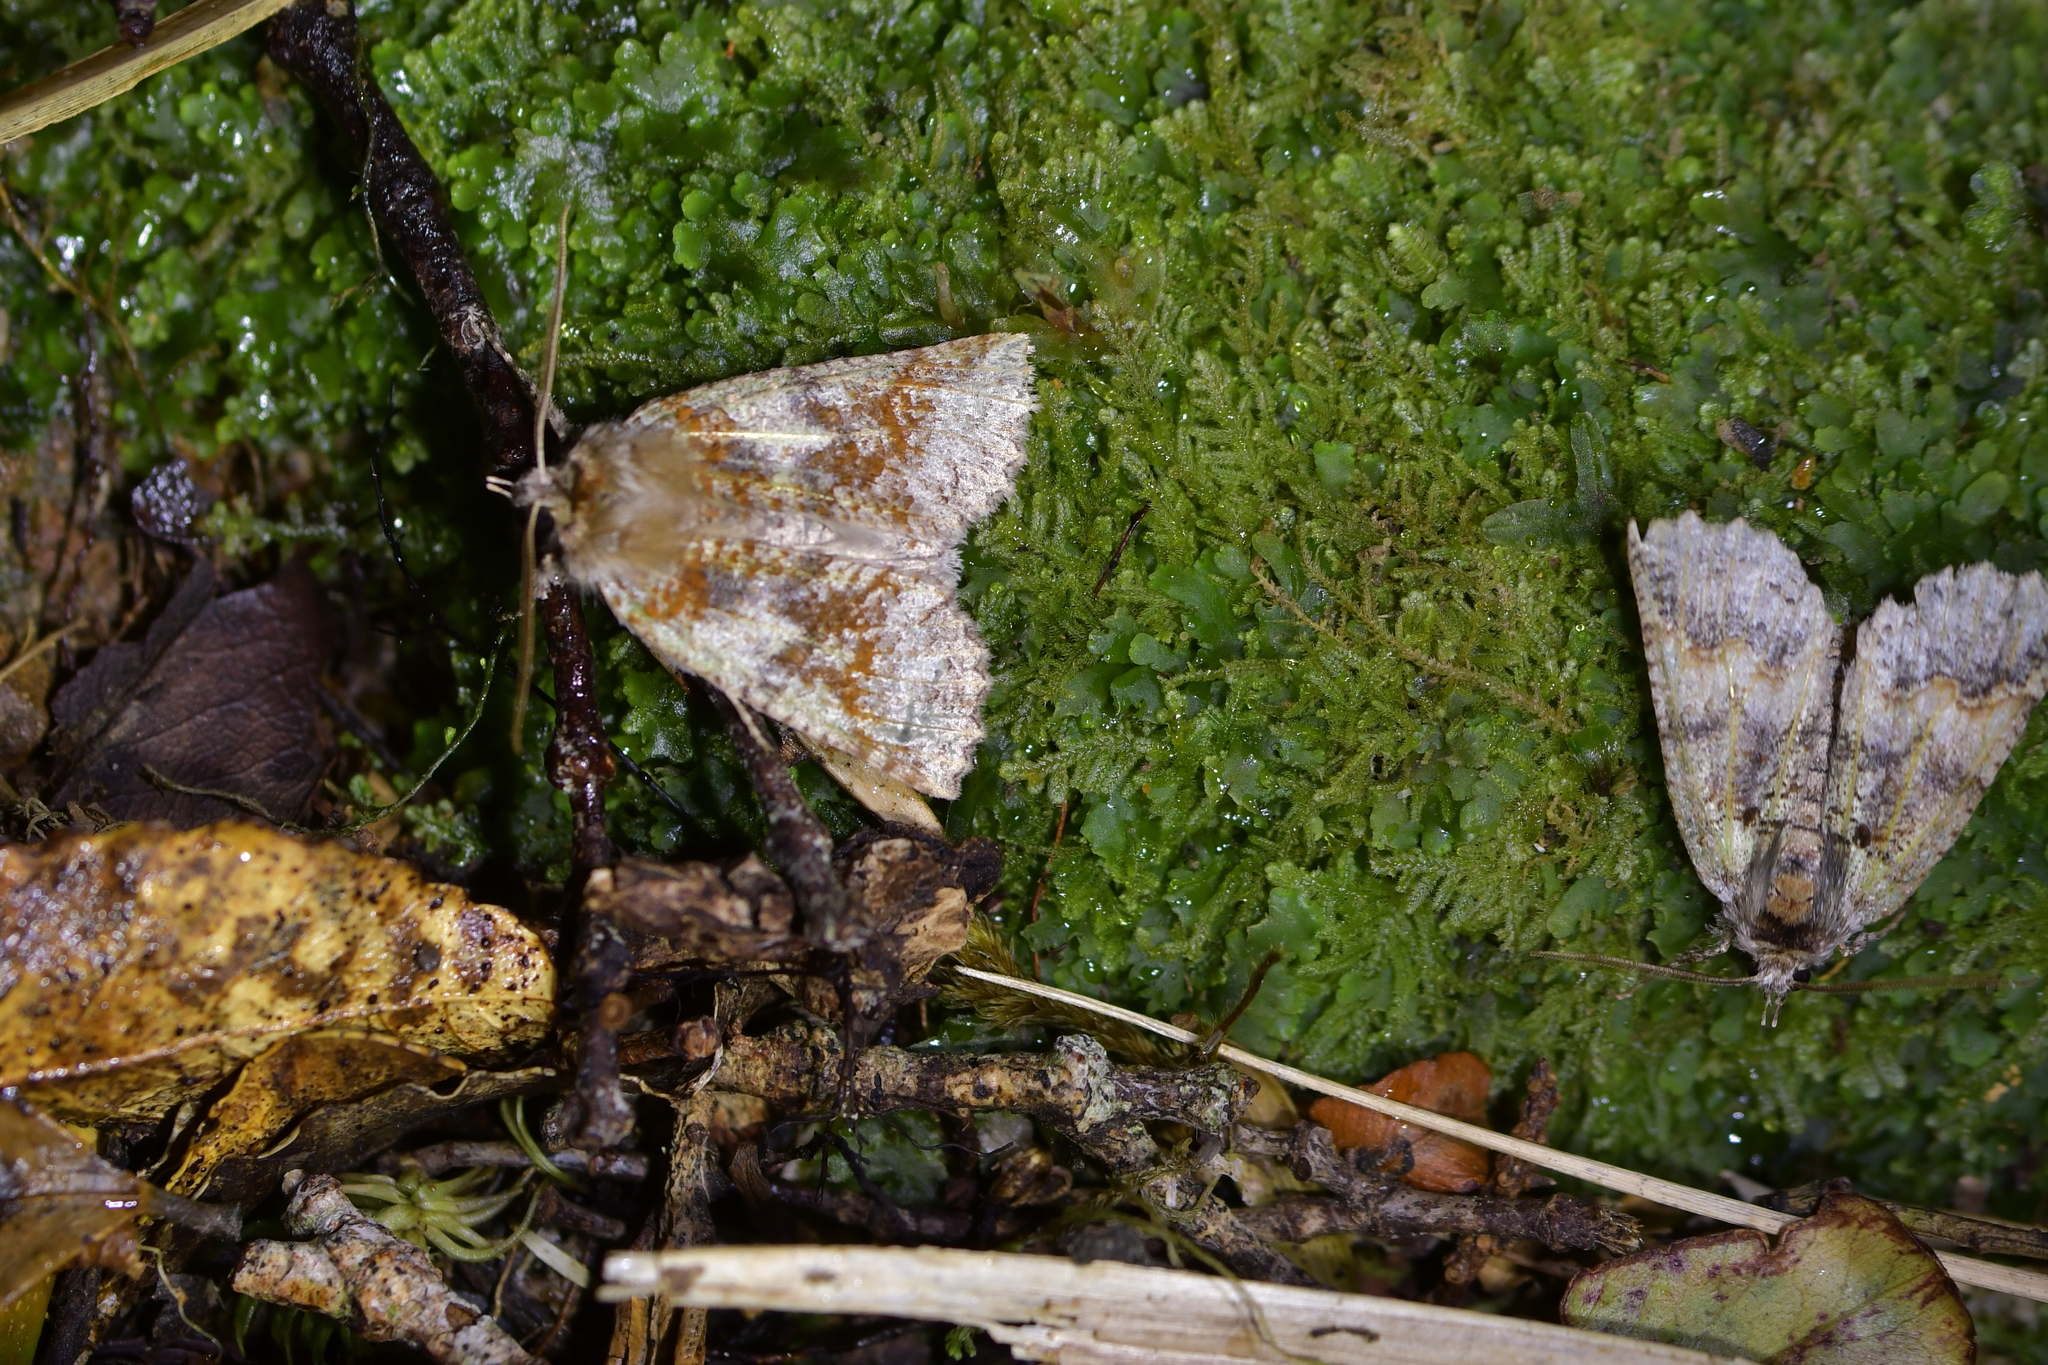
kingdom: Animalia
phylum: Arthropoda
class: Insecta
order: Lepidoptera
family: Geometridae
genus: Declana
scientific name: Declana floccosa
